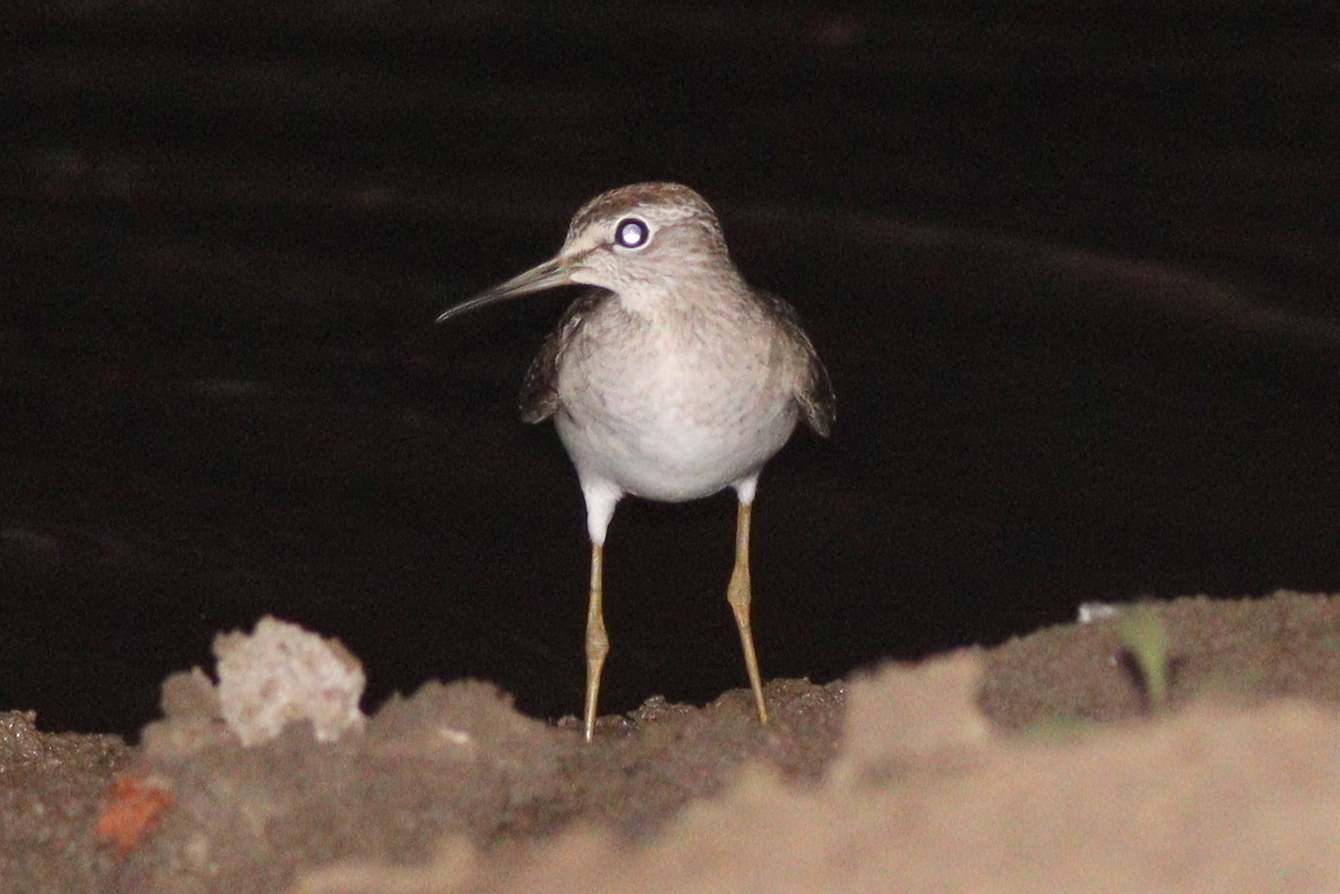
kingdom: Animalia
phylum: Chordata
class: Aves
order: Charadriiformes
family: Scolopacidae
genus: Tringa
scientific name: Tringa glareola
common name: Wood sandpiper
